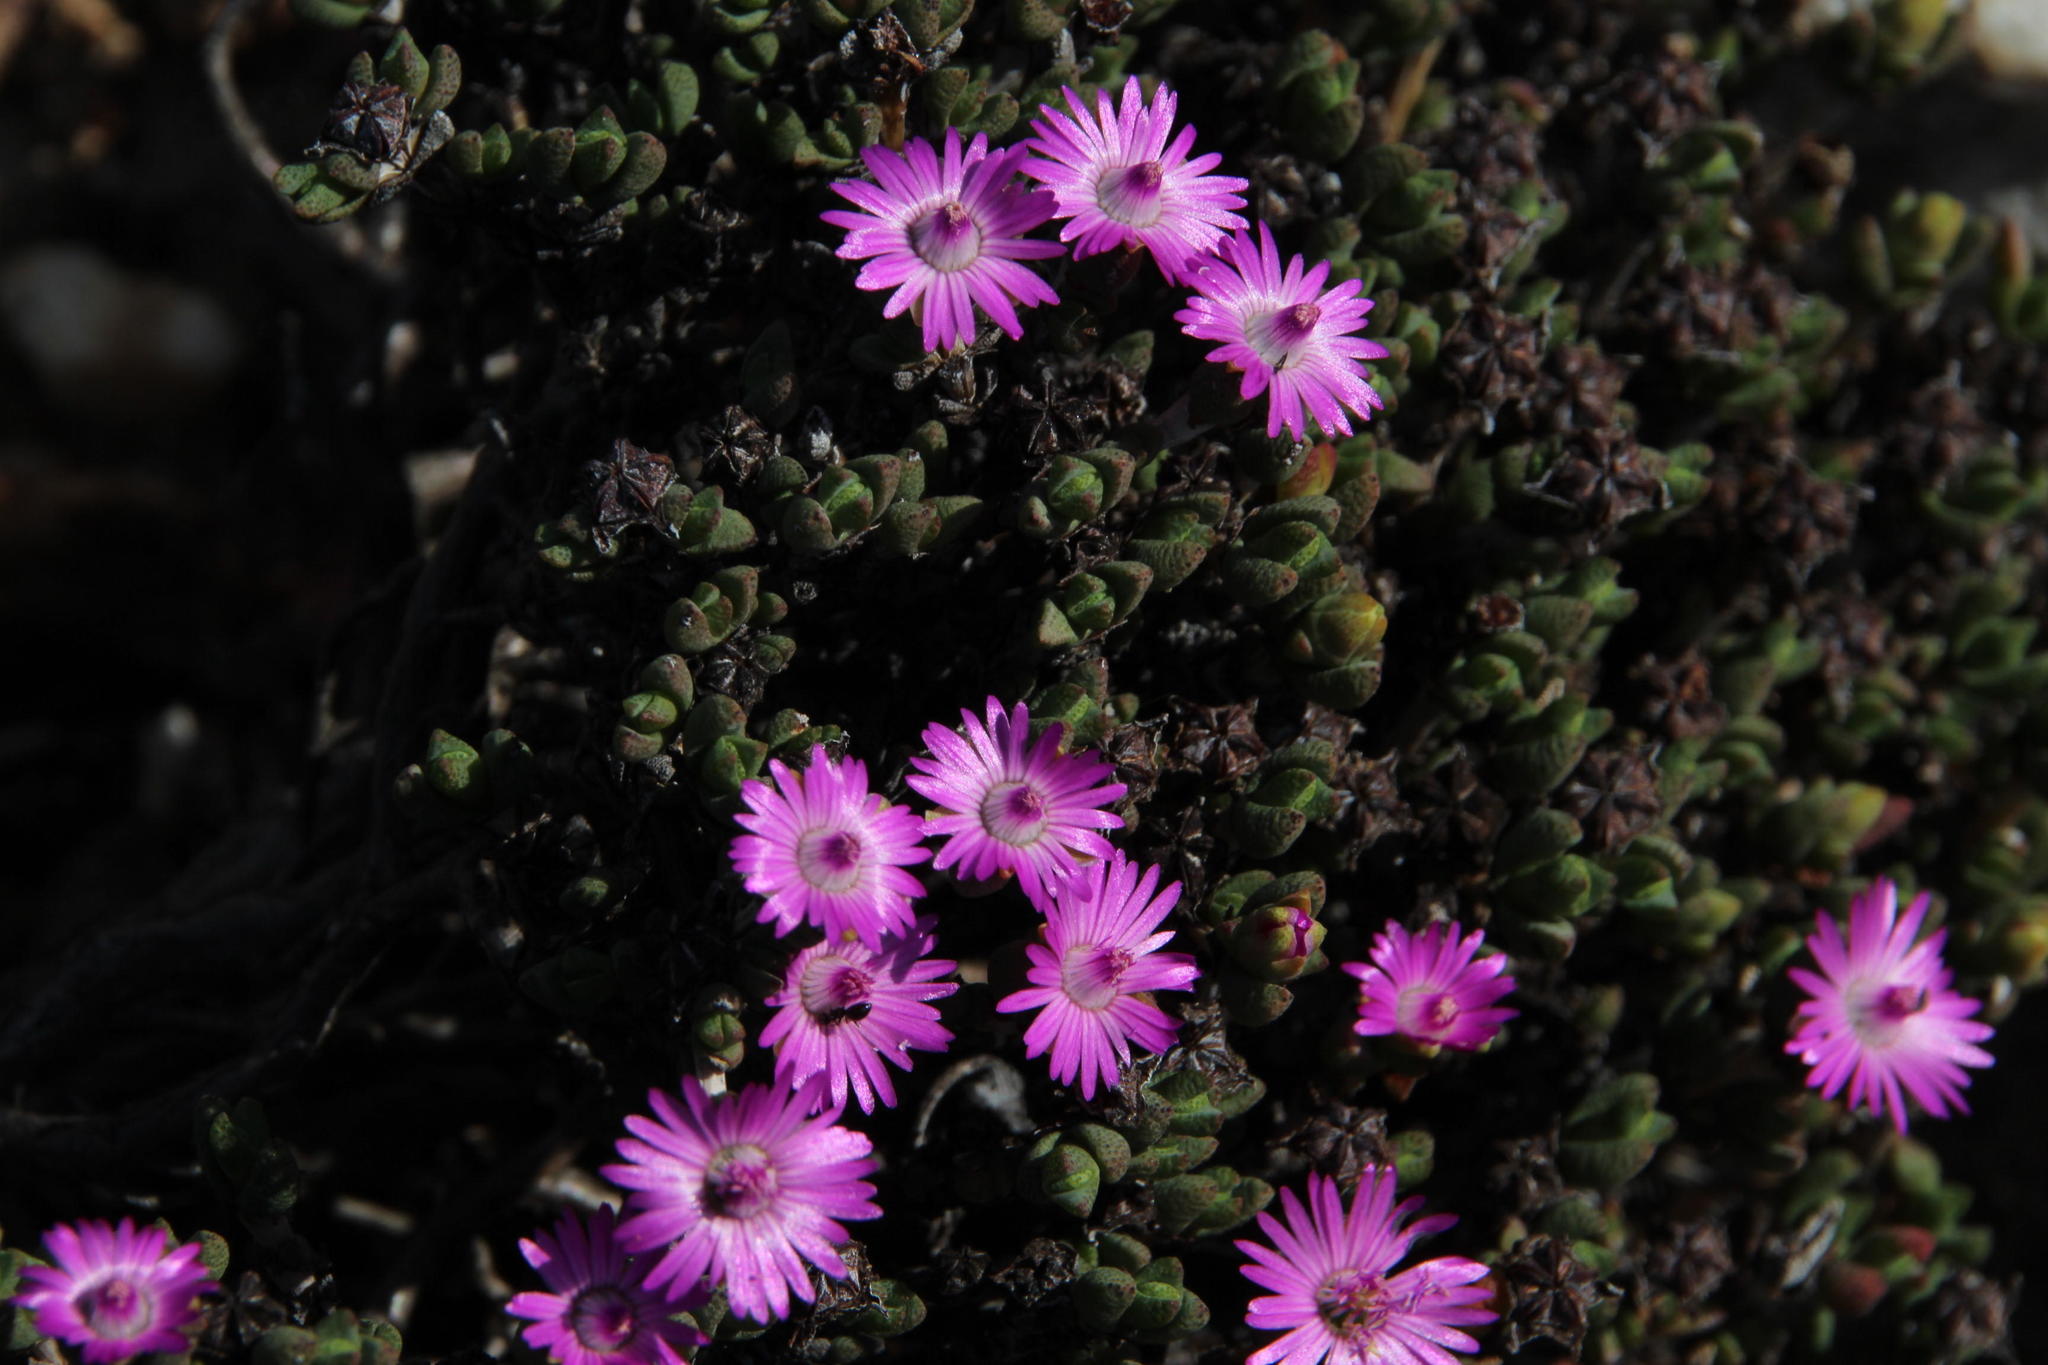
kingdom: Plantae
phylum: Tracheophyta
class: Magnoliopsida
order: Caryophyllales
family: Aizoaceae
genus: Antimima
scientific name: Antimima roseola
